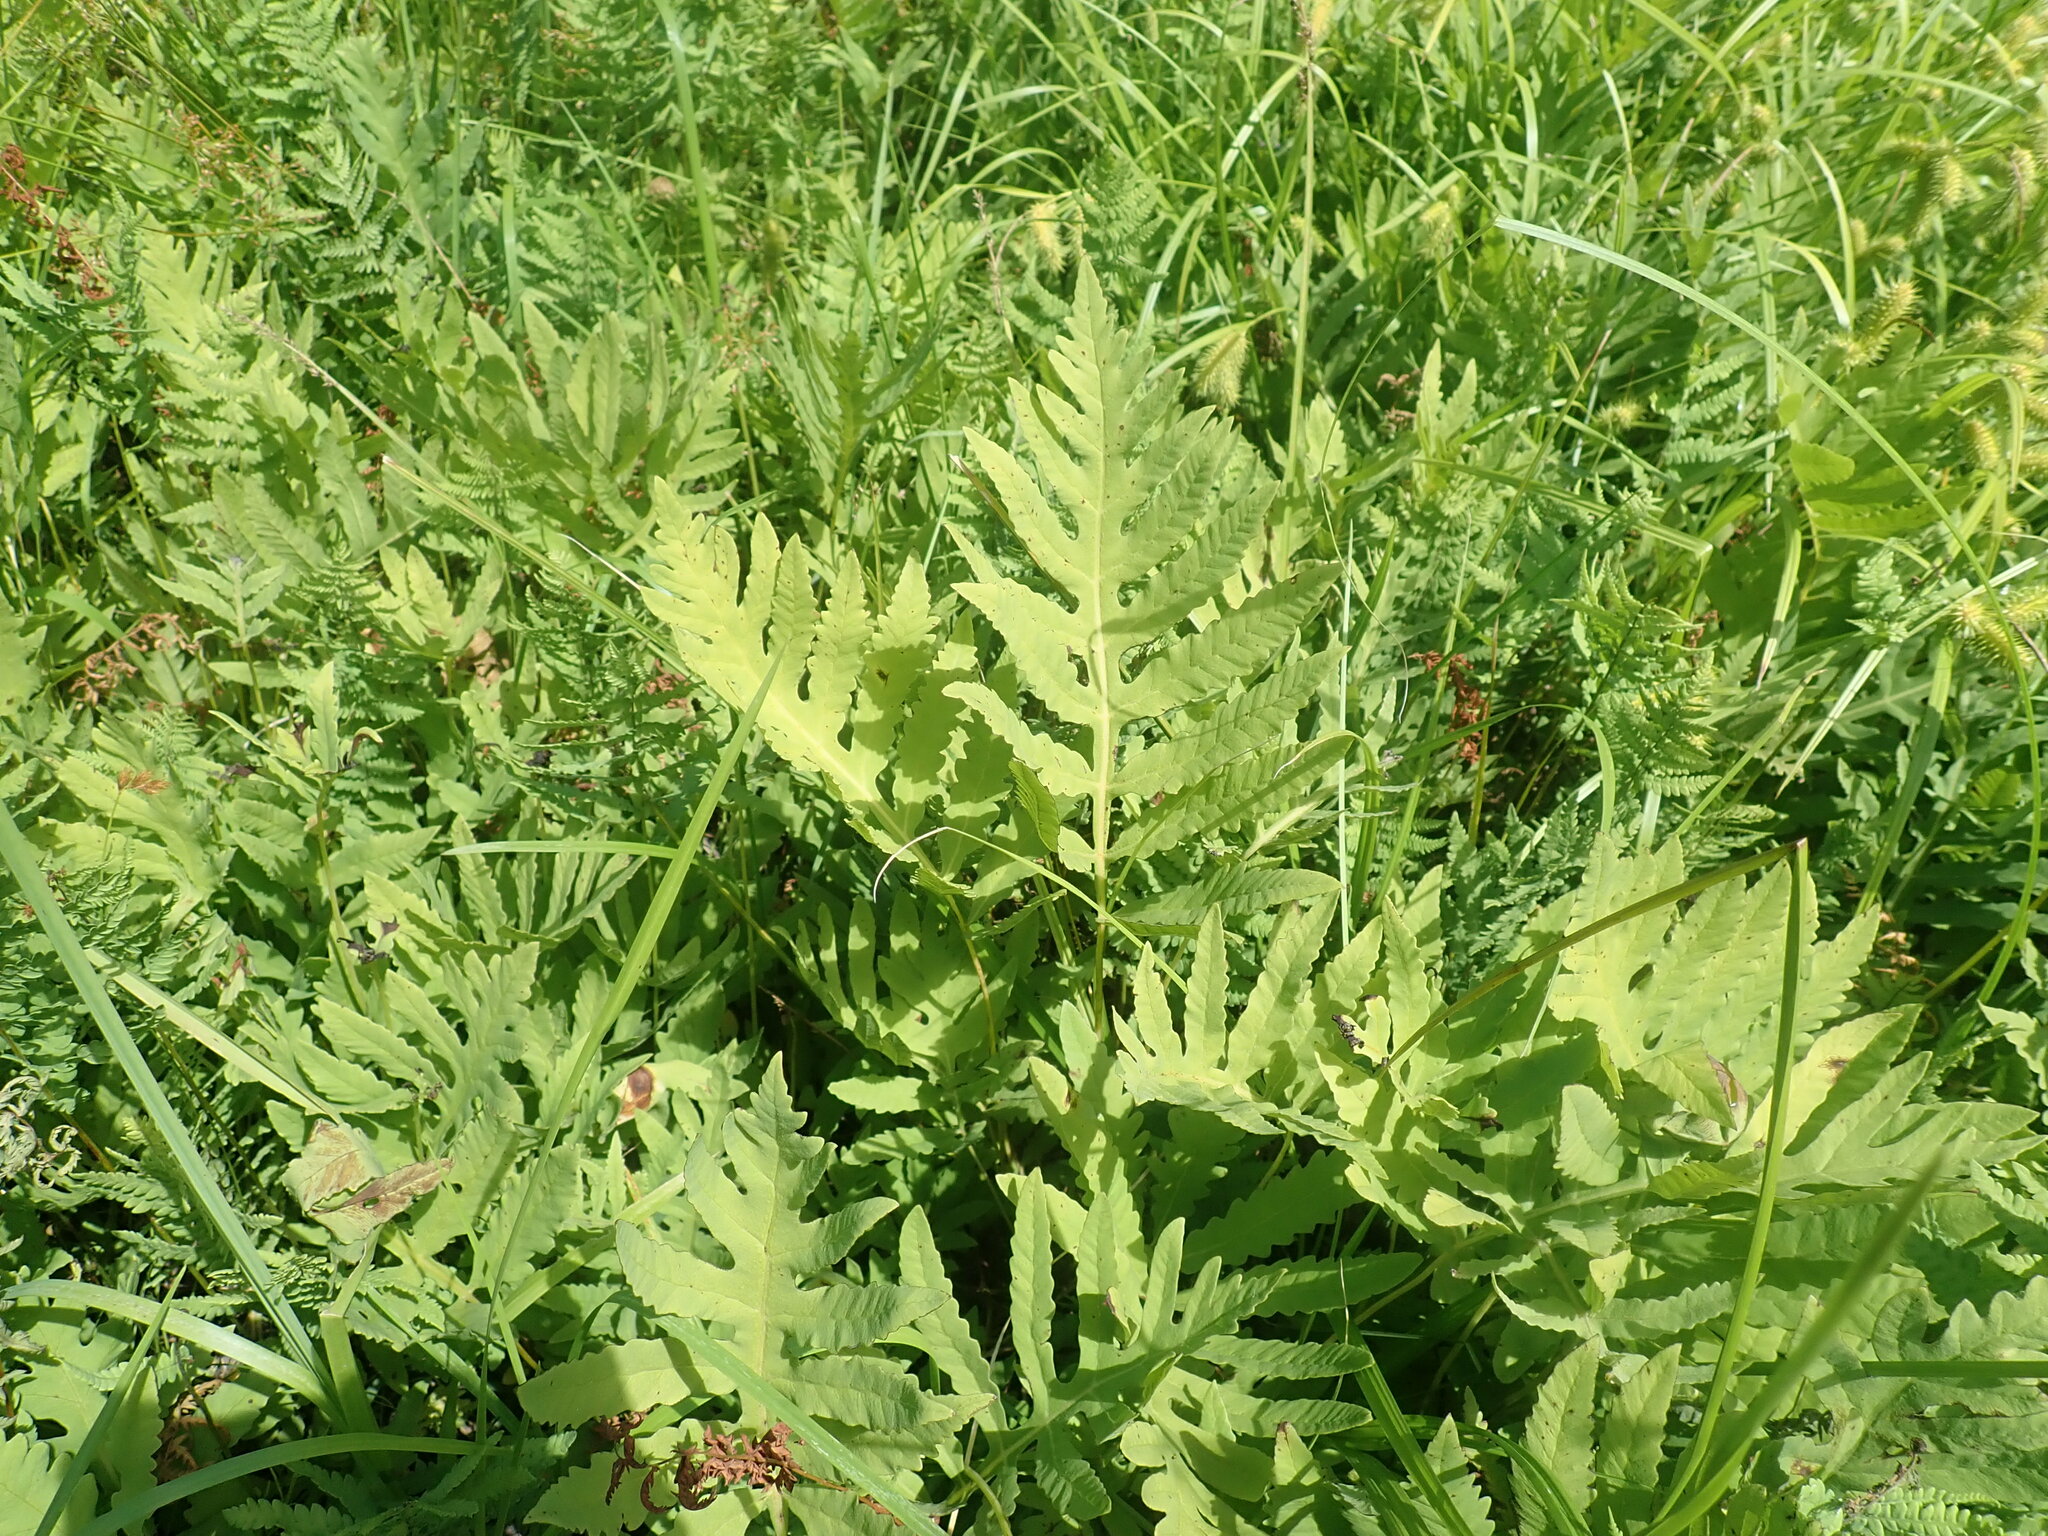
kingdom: Plantae
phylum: Tracheophyta
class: Polypodiopsida
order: Polypodiales
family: Onocleaceae
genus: Onoclea
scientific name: Onoclea sensibilis
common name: Sensitive fern
